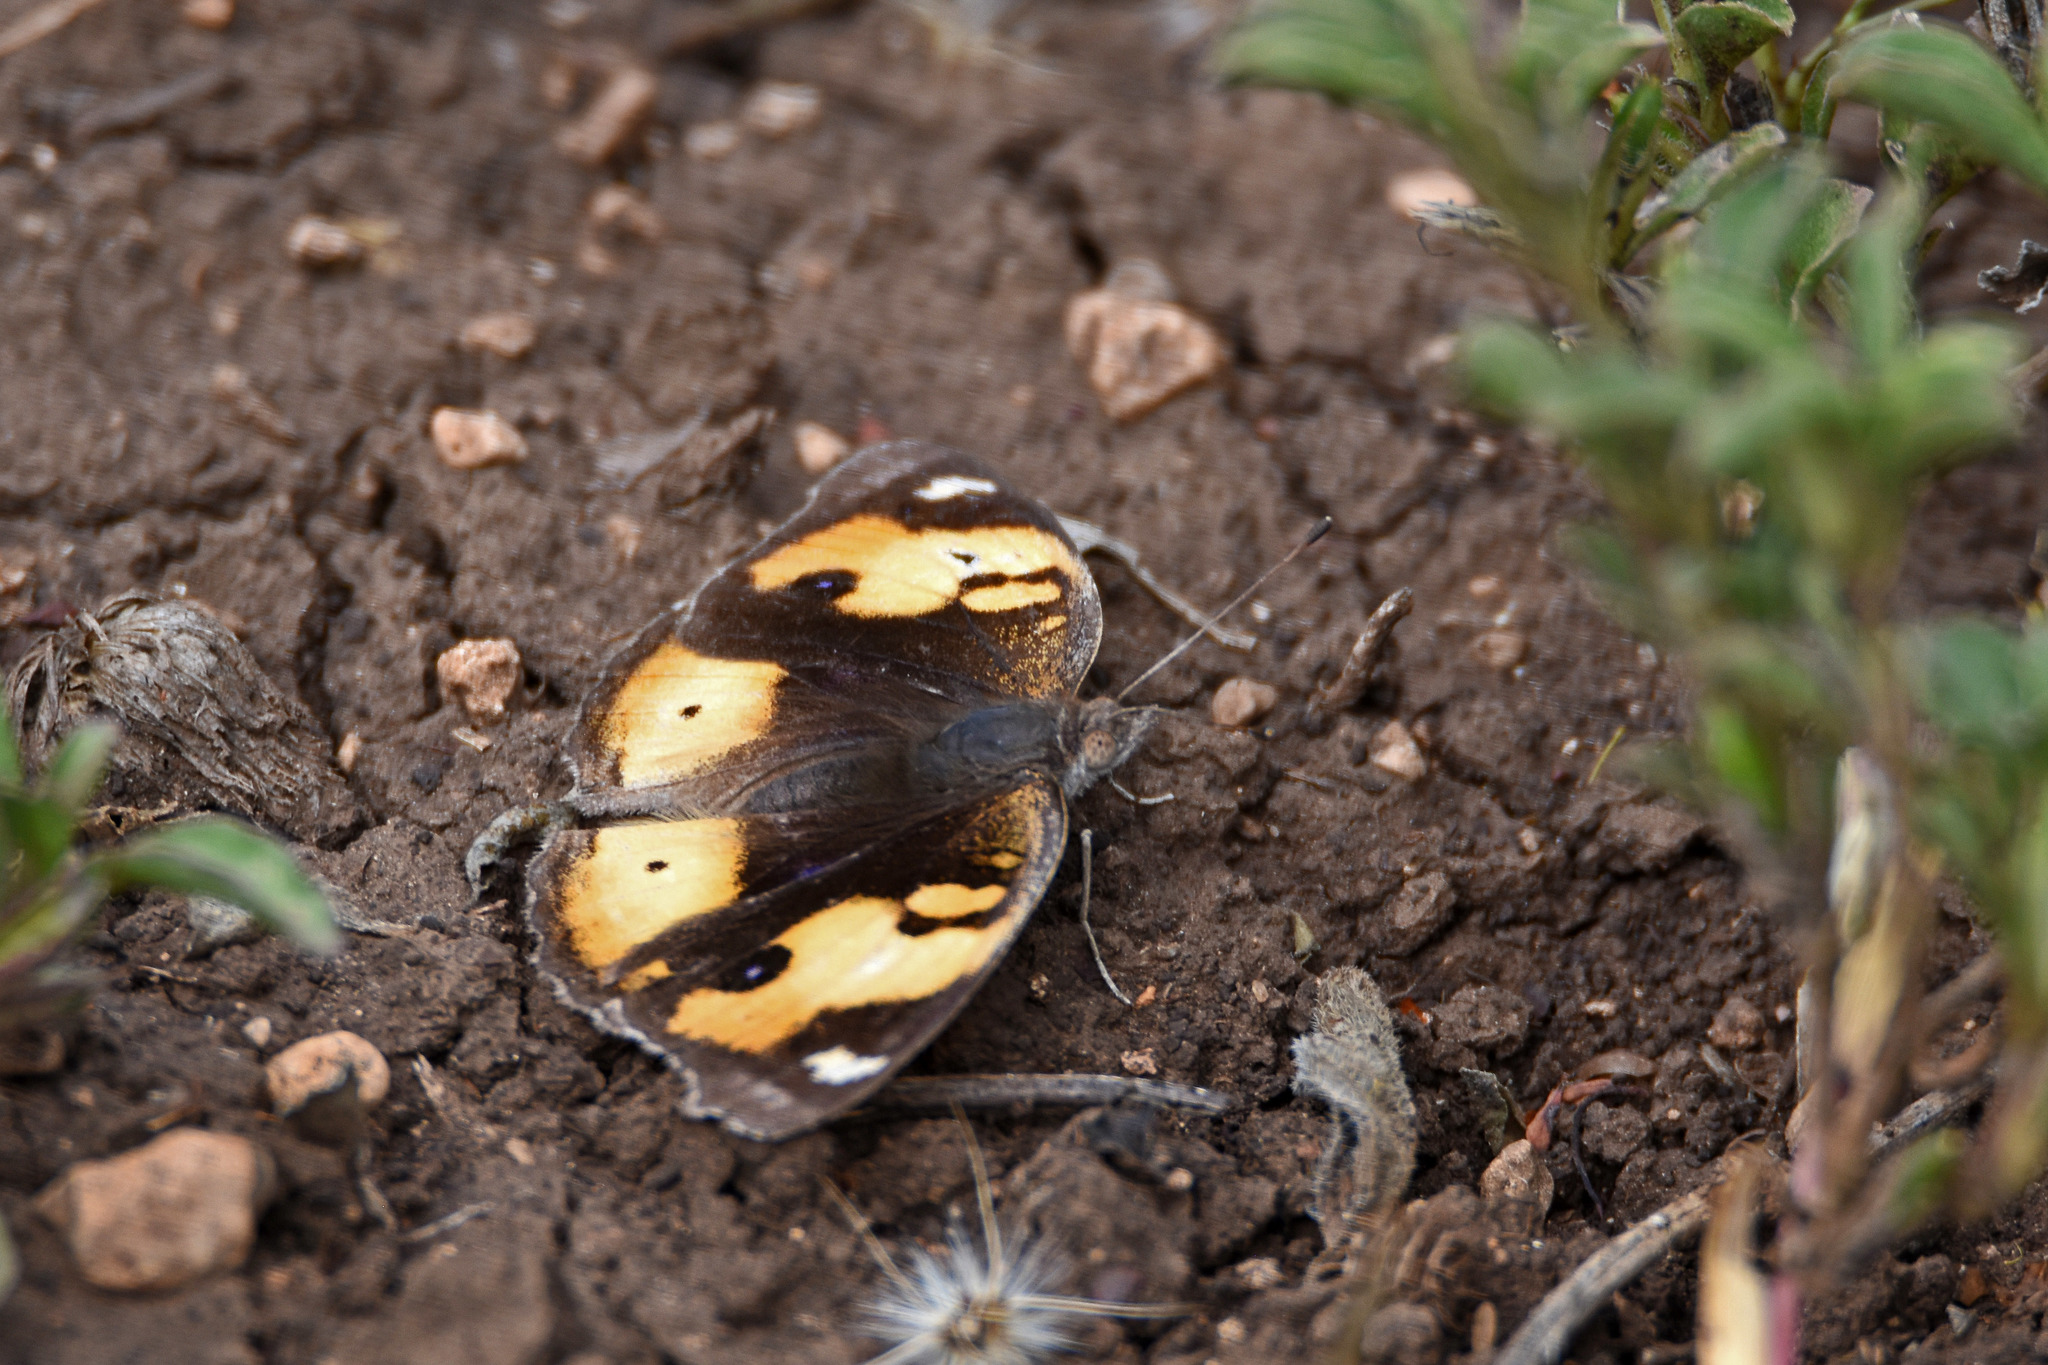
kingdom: Animalia
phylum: Arthropoda
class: Insecta
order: Lepidoptera
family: Nymphalidae
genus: Junonia
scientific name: Junonia hierta
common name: Yellow pansy
